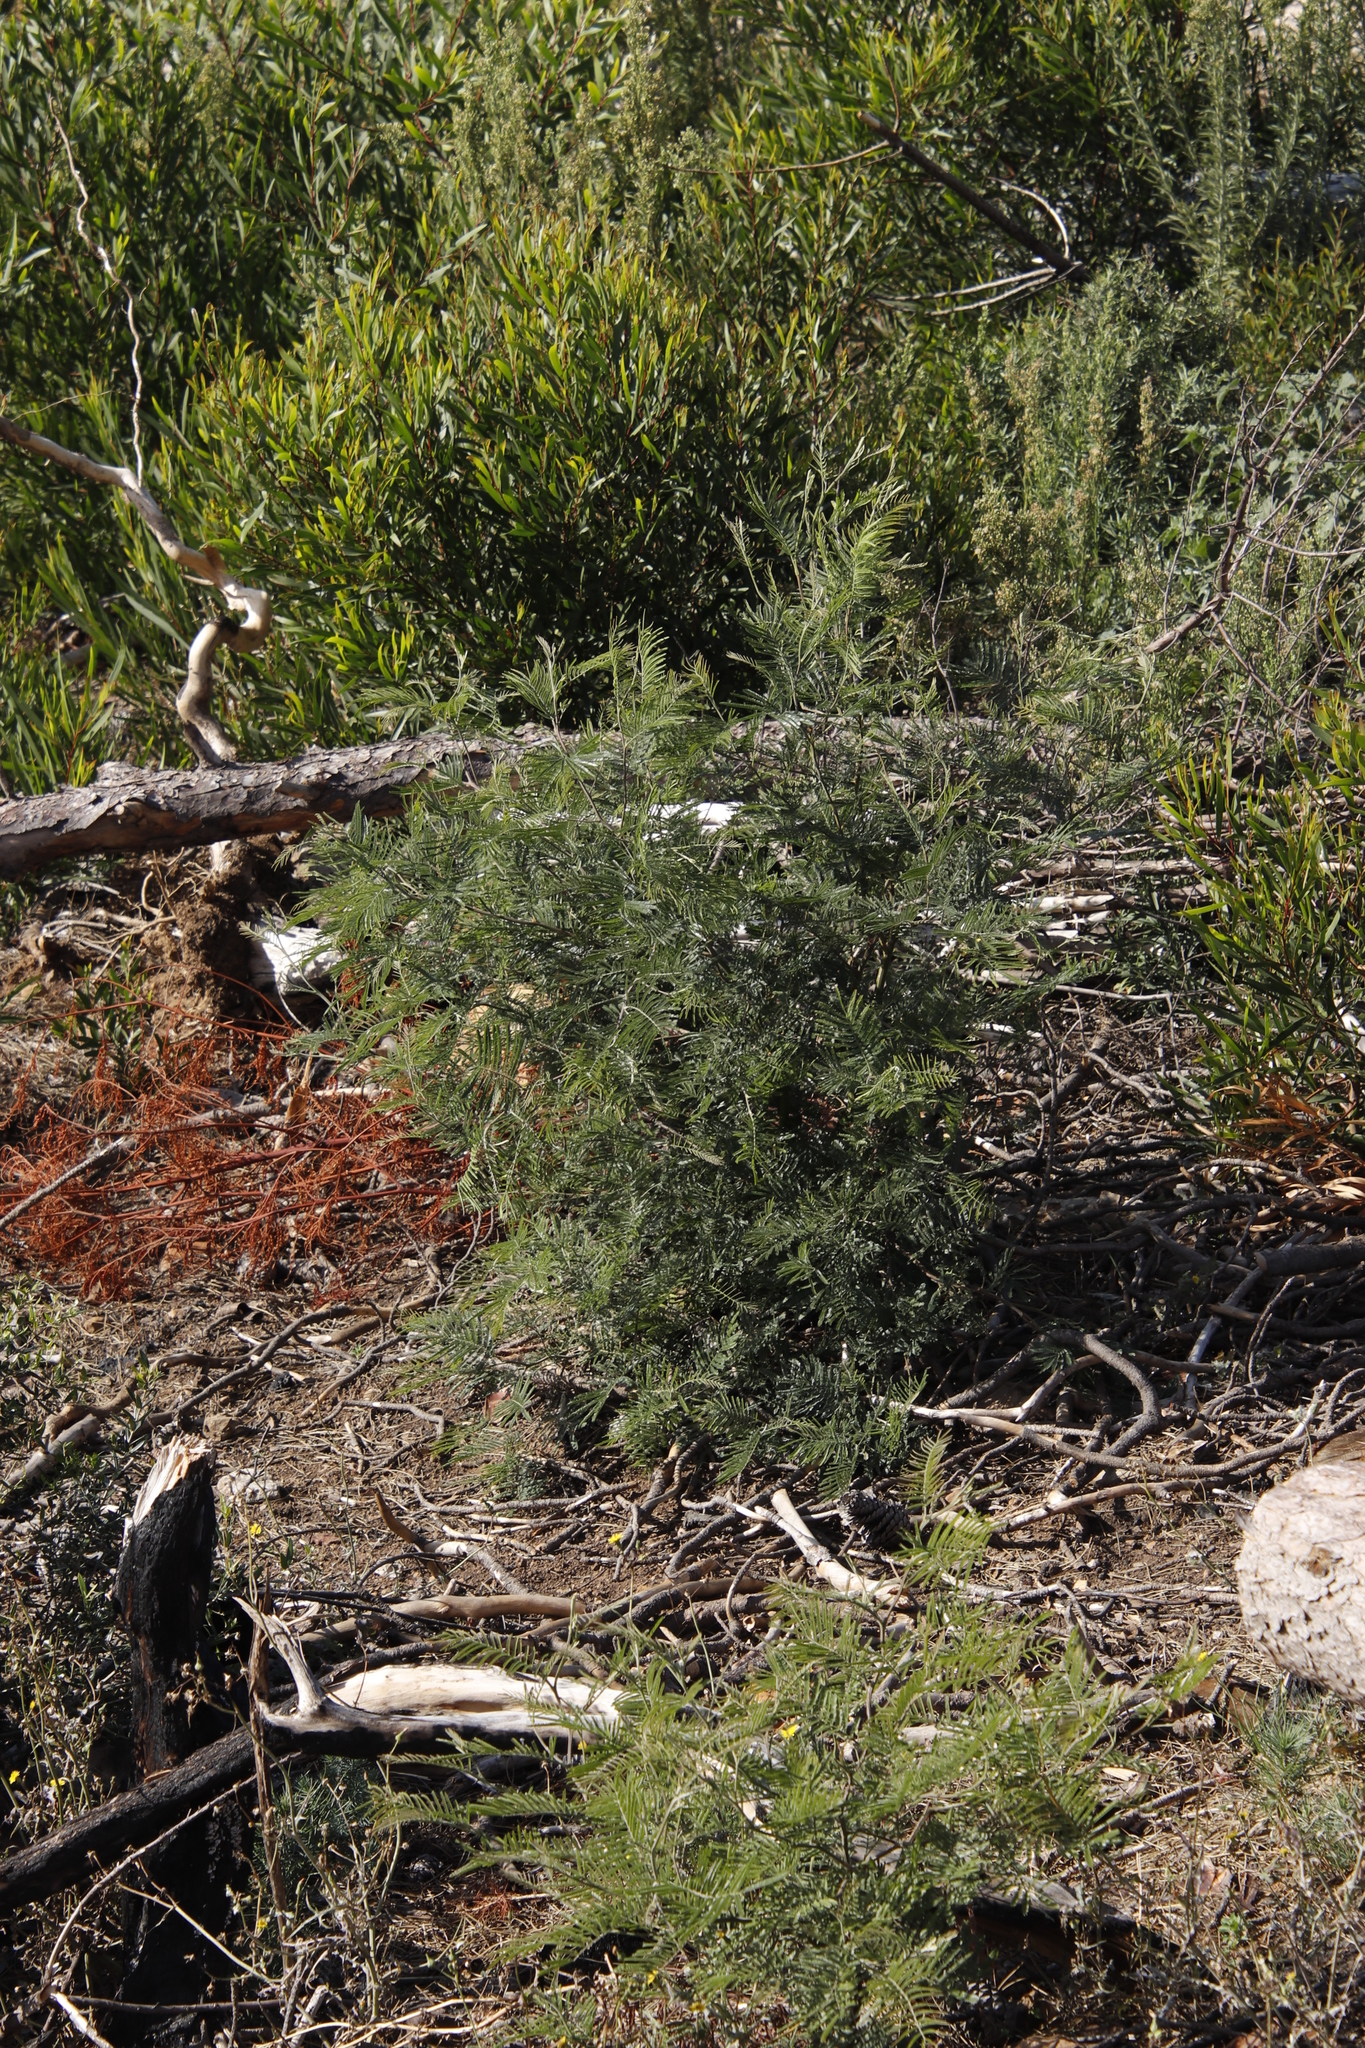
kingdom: Plantae
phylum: Tracheophyta
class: Magnoliopsida
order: Fabales
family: Fabaceae
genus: Acacia
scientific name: Acacia mearnsii
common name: Black wattle
